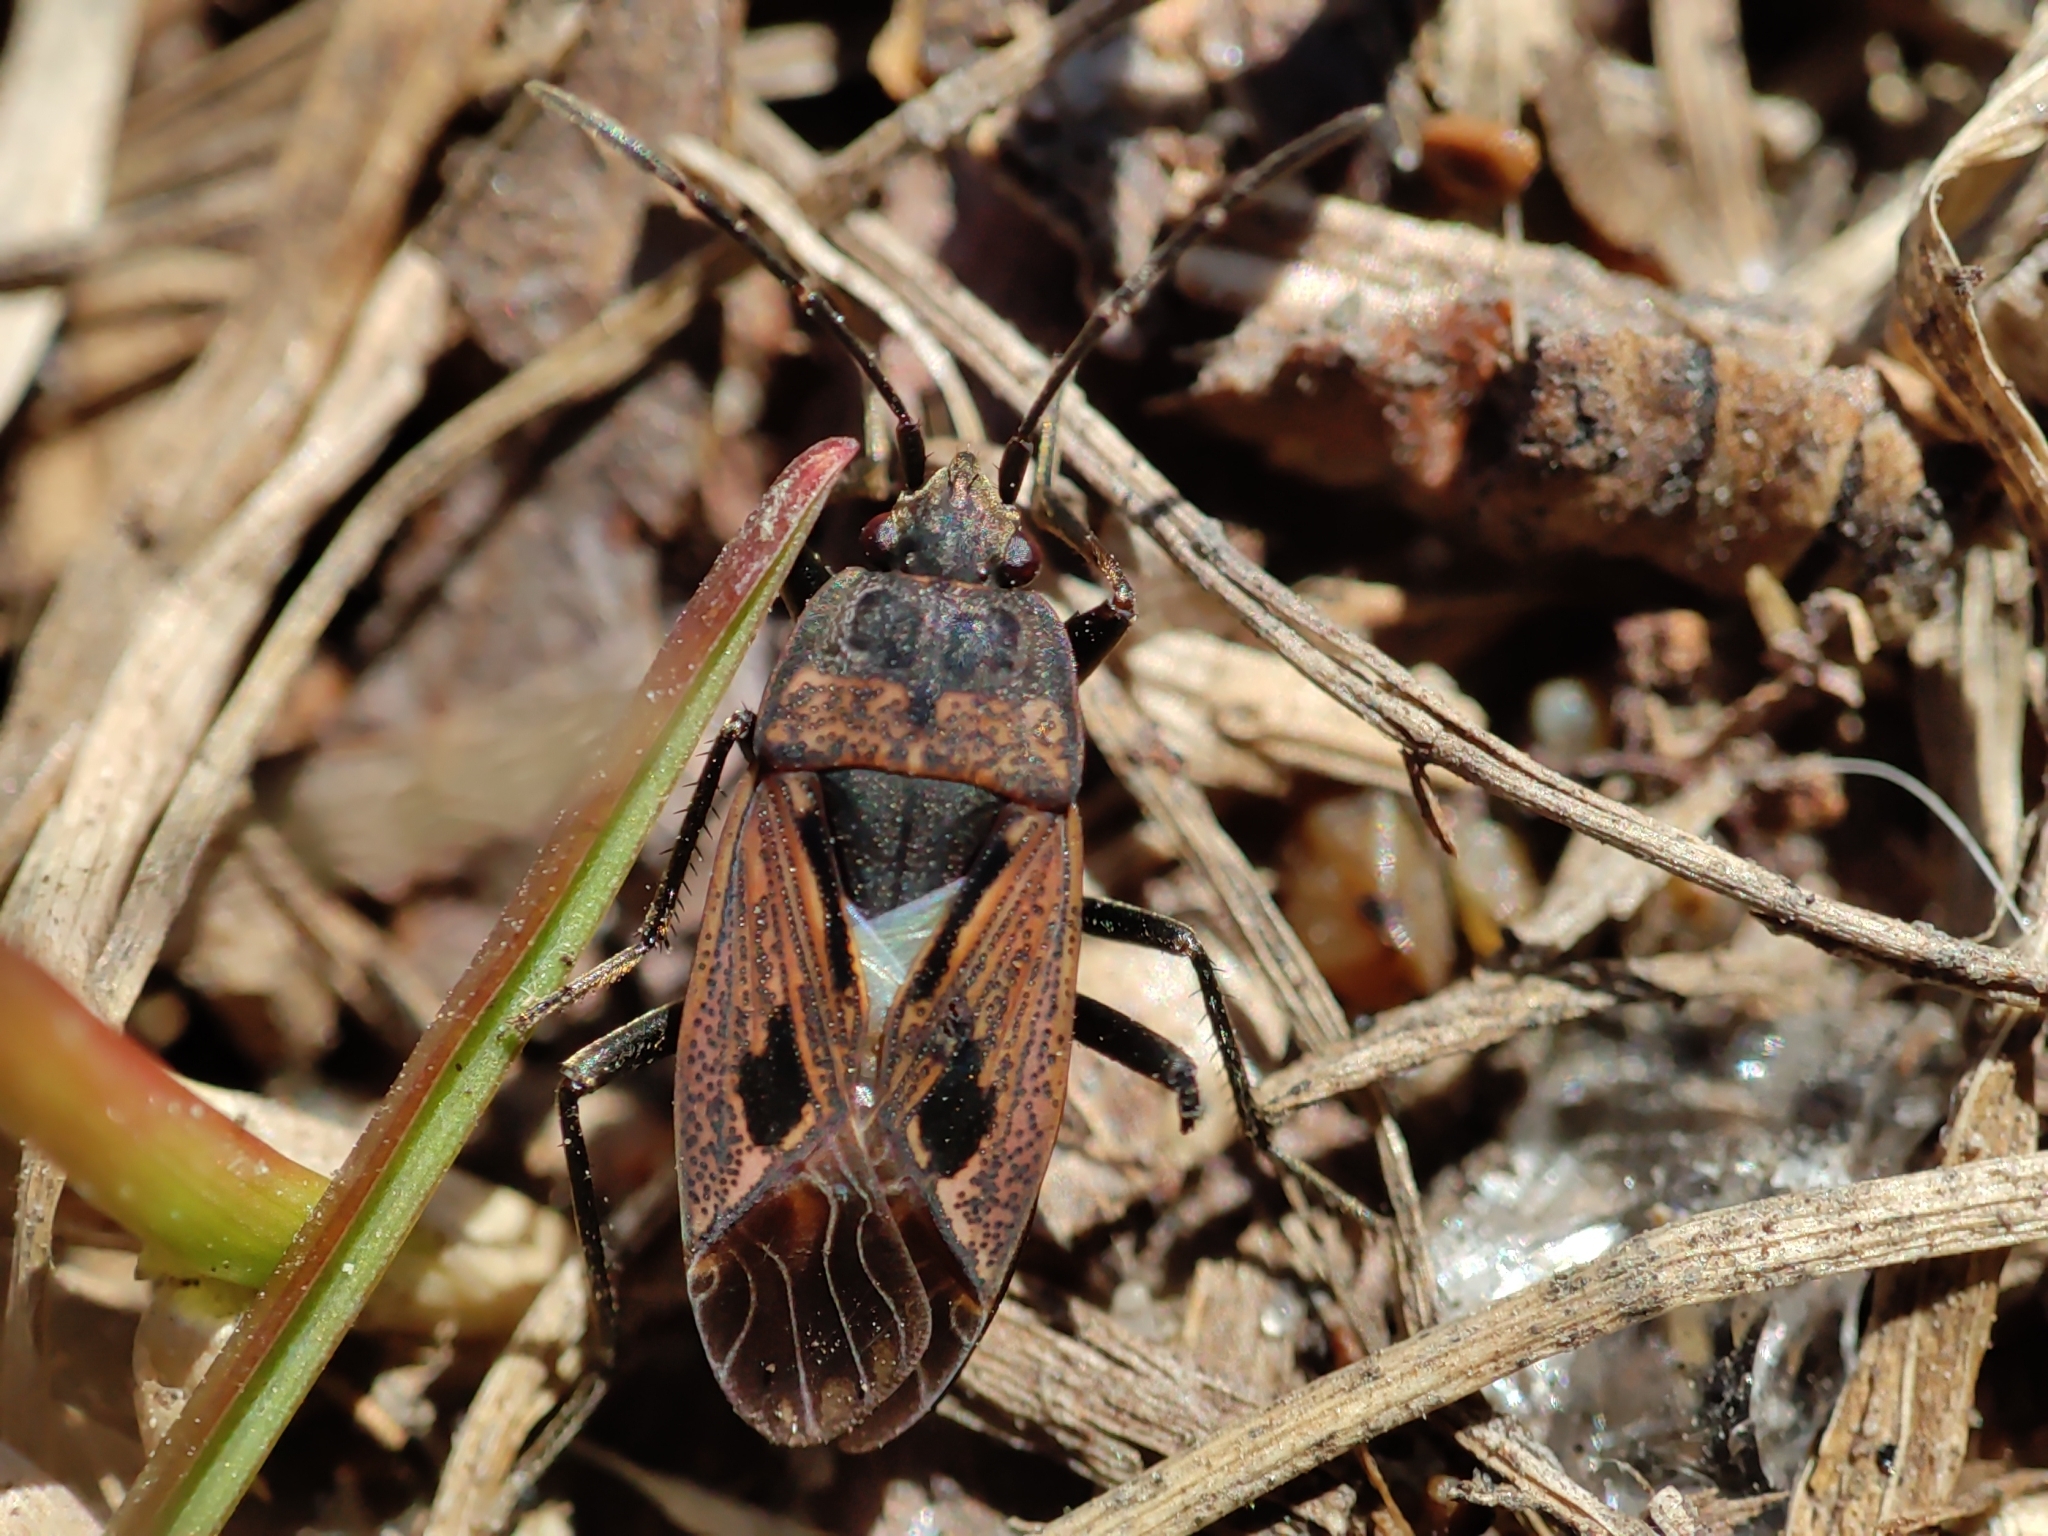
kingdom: Animalia
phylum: Arthropoda
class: Insecta
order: Hemiptera
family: Rhyparochromidae
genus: Rhyparochromus
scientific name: Rhyparochromus pini
